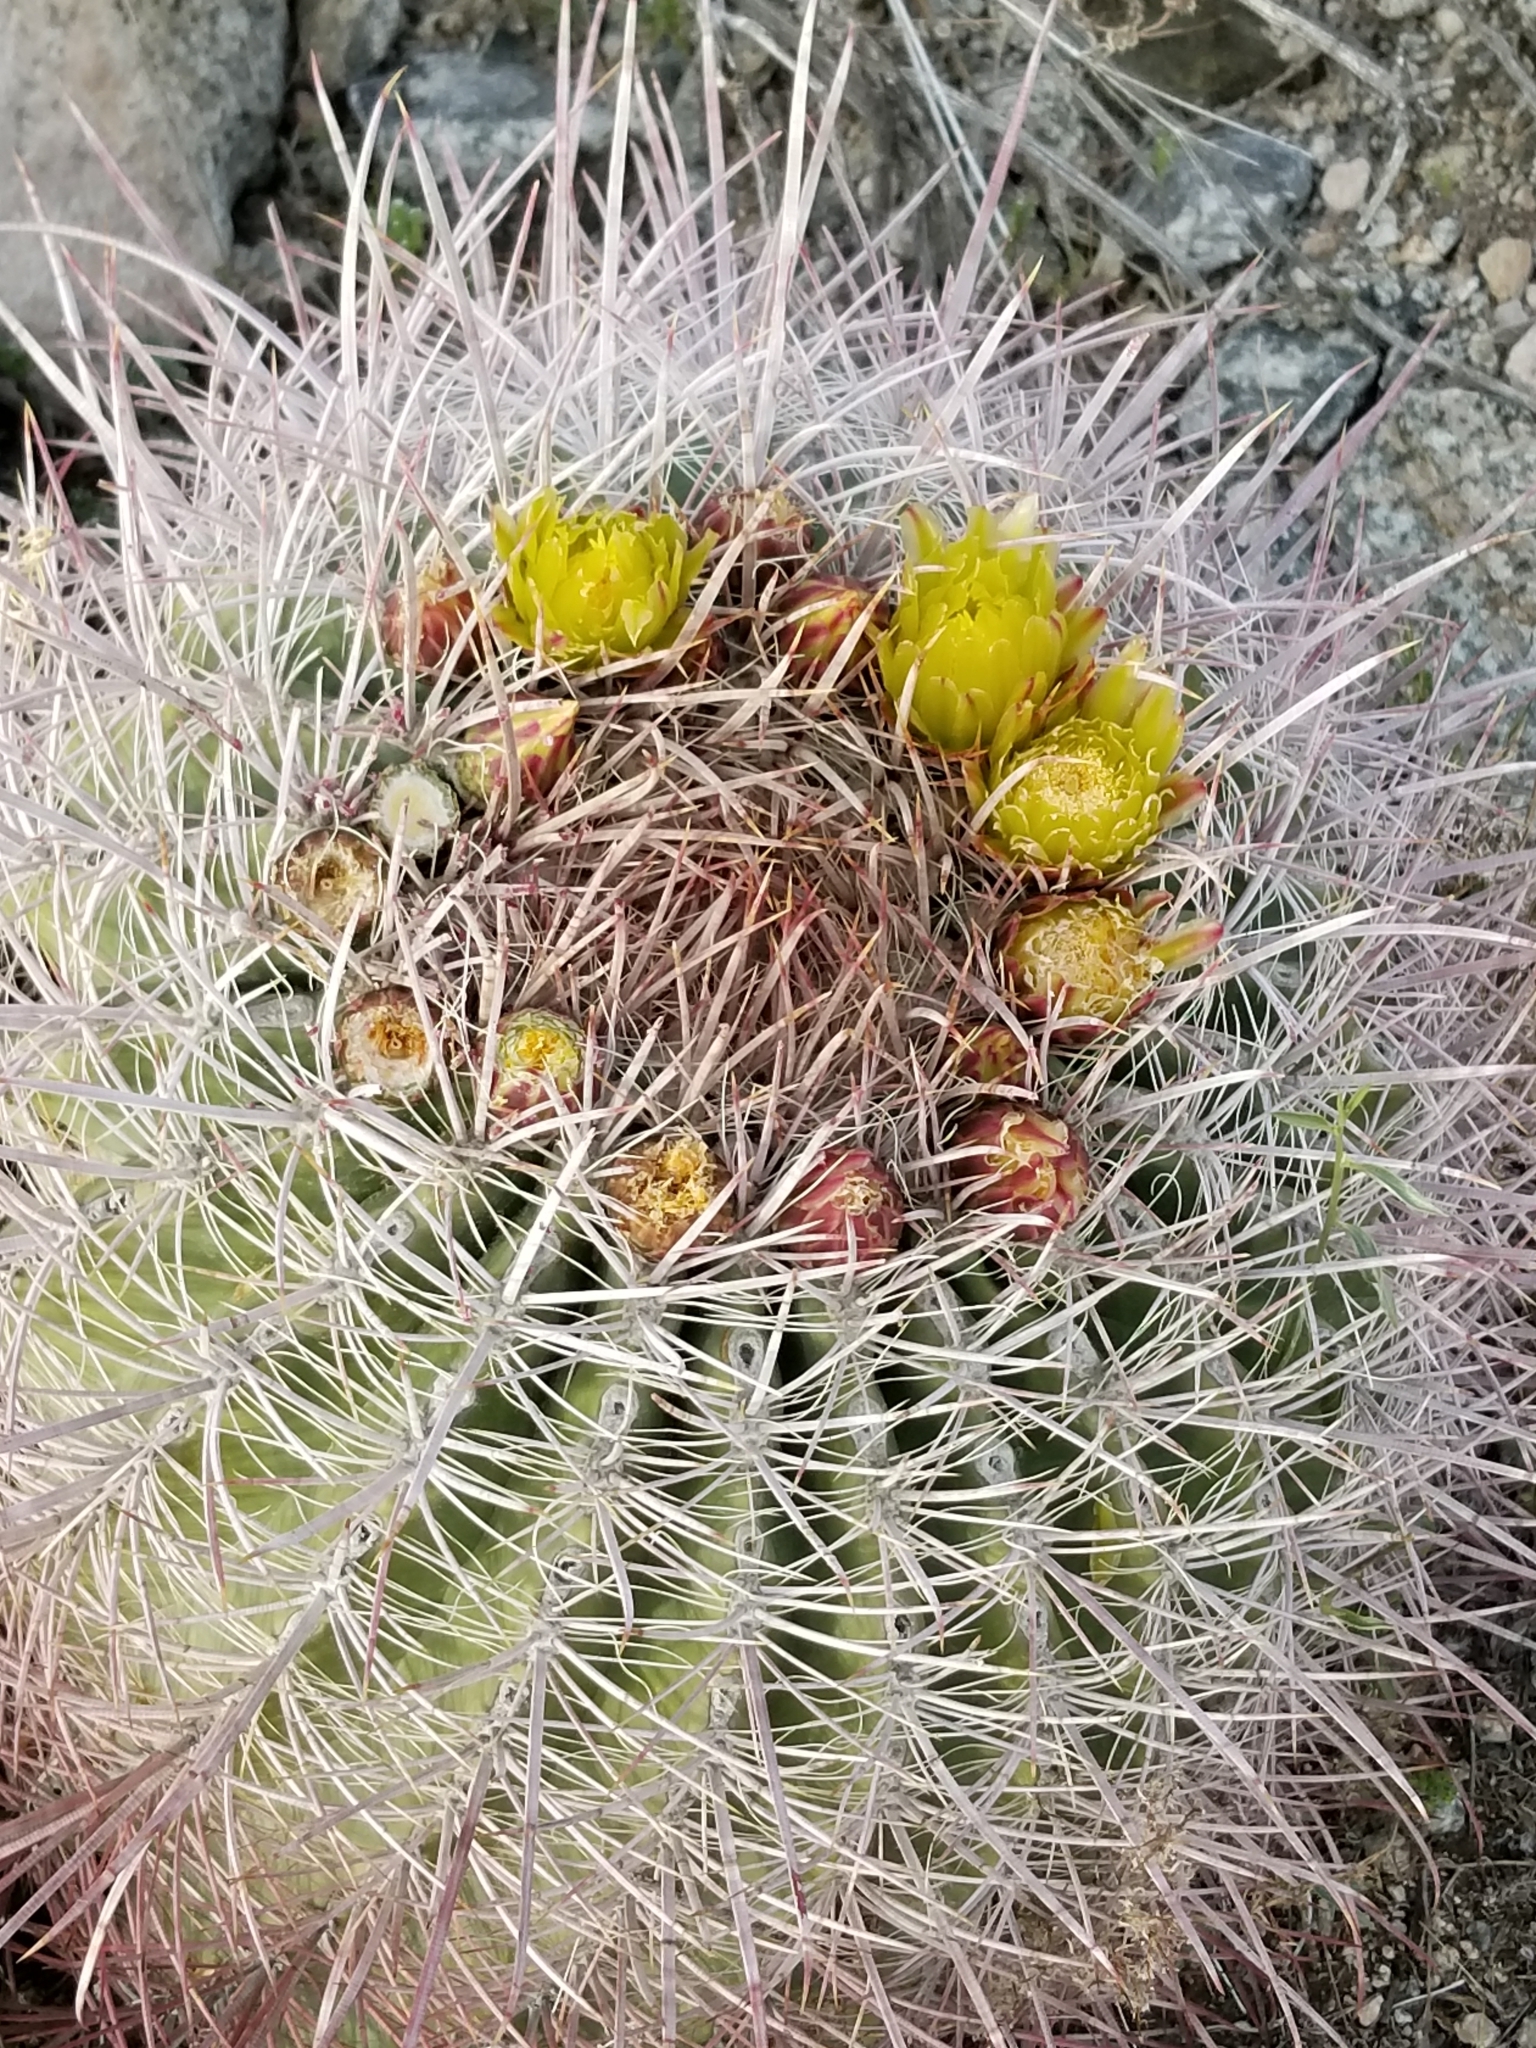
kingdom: Plantae
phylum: Tracheophyta
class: Magnoliopsida
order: Caryophyllales
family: Cactaceae
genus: Ferocactus
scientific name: Ferocactus cylindraceus
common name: California barrel cactus
